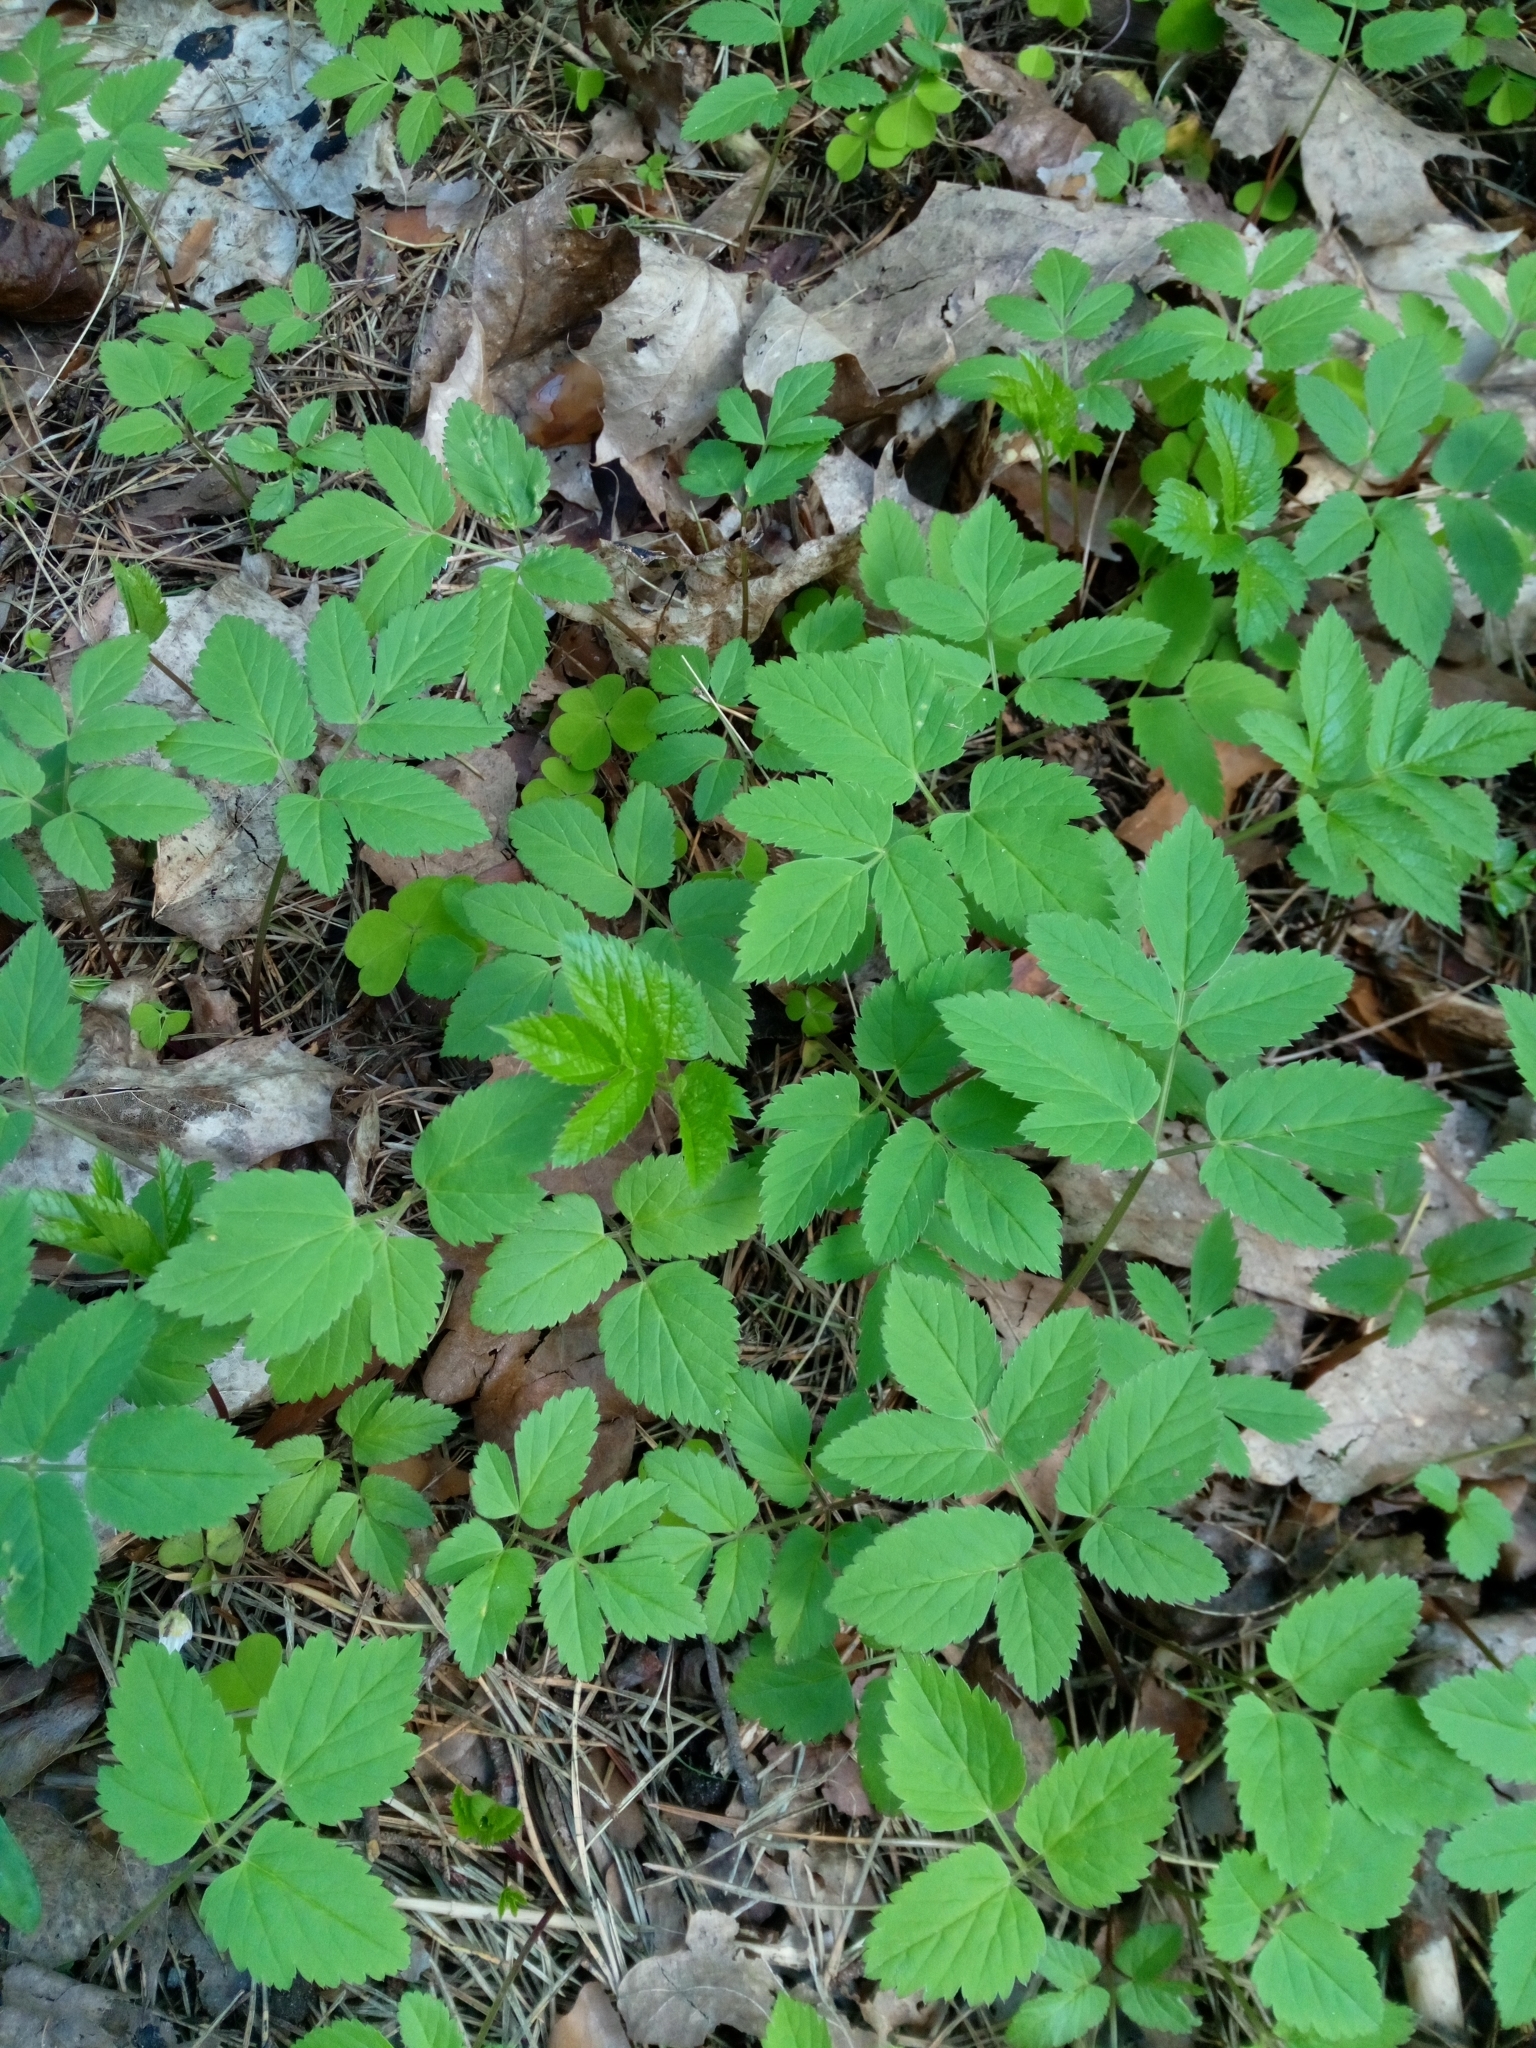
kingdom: Plantae
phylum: Tracheophyta
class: Magnoliopsida
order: Apiales
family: Apiaceae
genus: Aegopodium
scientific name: Aegopodium podagraria
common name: Ground-elder
